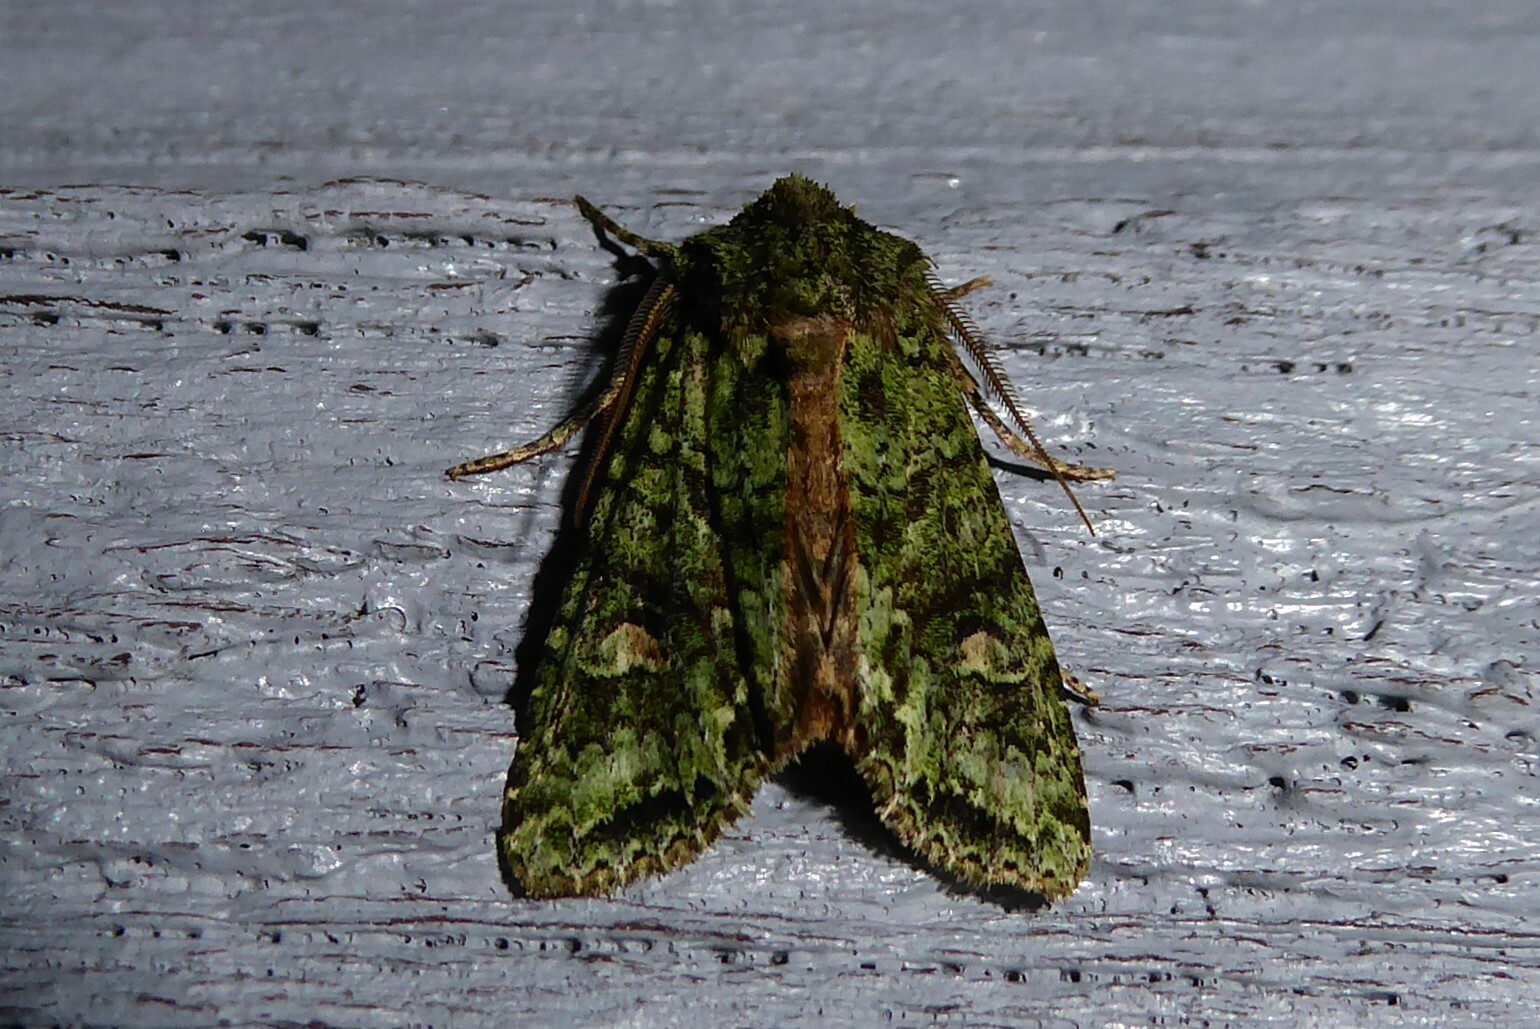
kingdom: Animalia
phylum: Arthropoda
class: Insecta
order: Lepidoptera
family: Noctuidae
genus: Ichneutica
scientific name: Ichneutica
